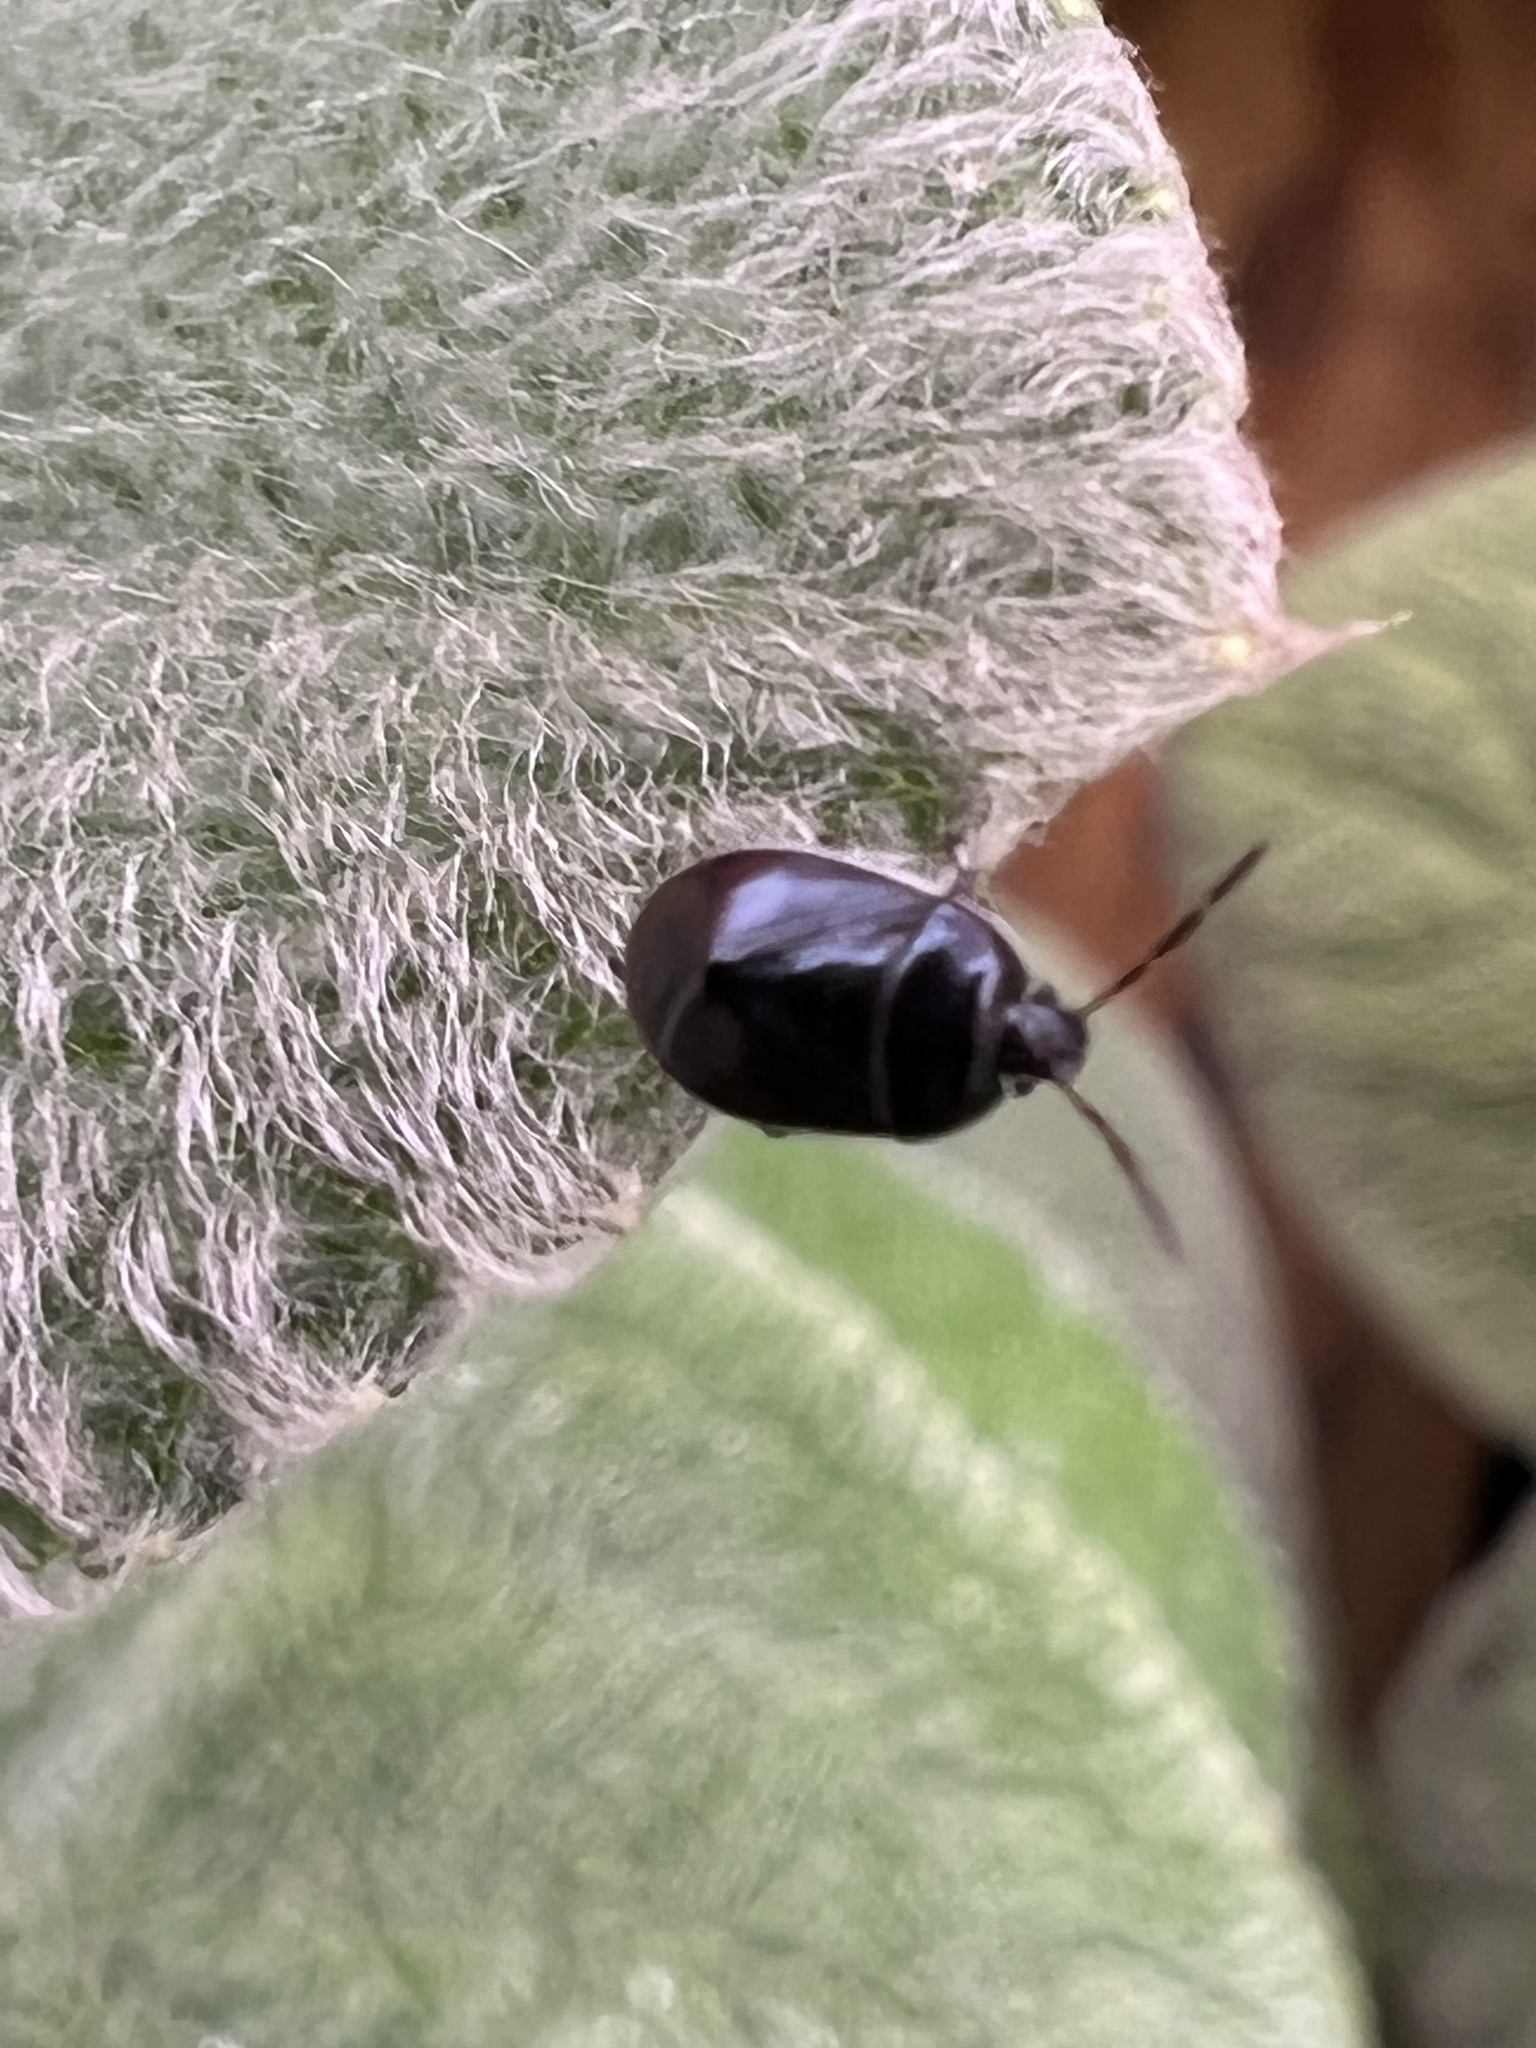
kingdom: Animalia
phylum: Arthropoda
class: Insecta
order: Hemiptera
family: Cydnidae
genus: Sehirus
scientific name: Sehirus cinctus
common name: White-margined burrower bug
